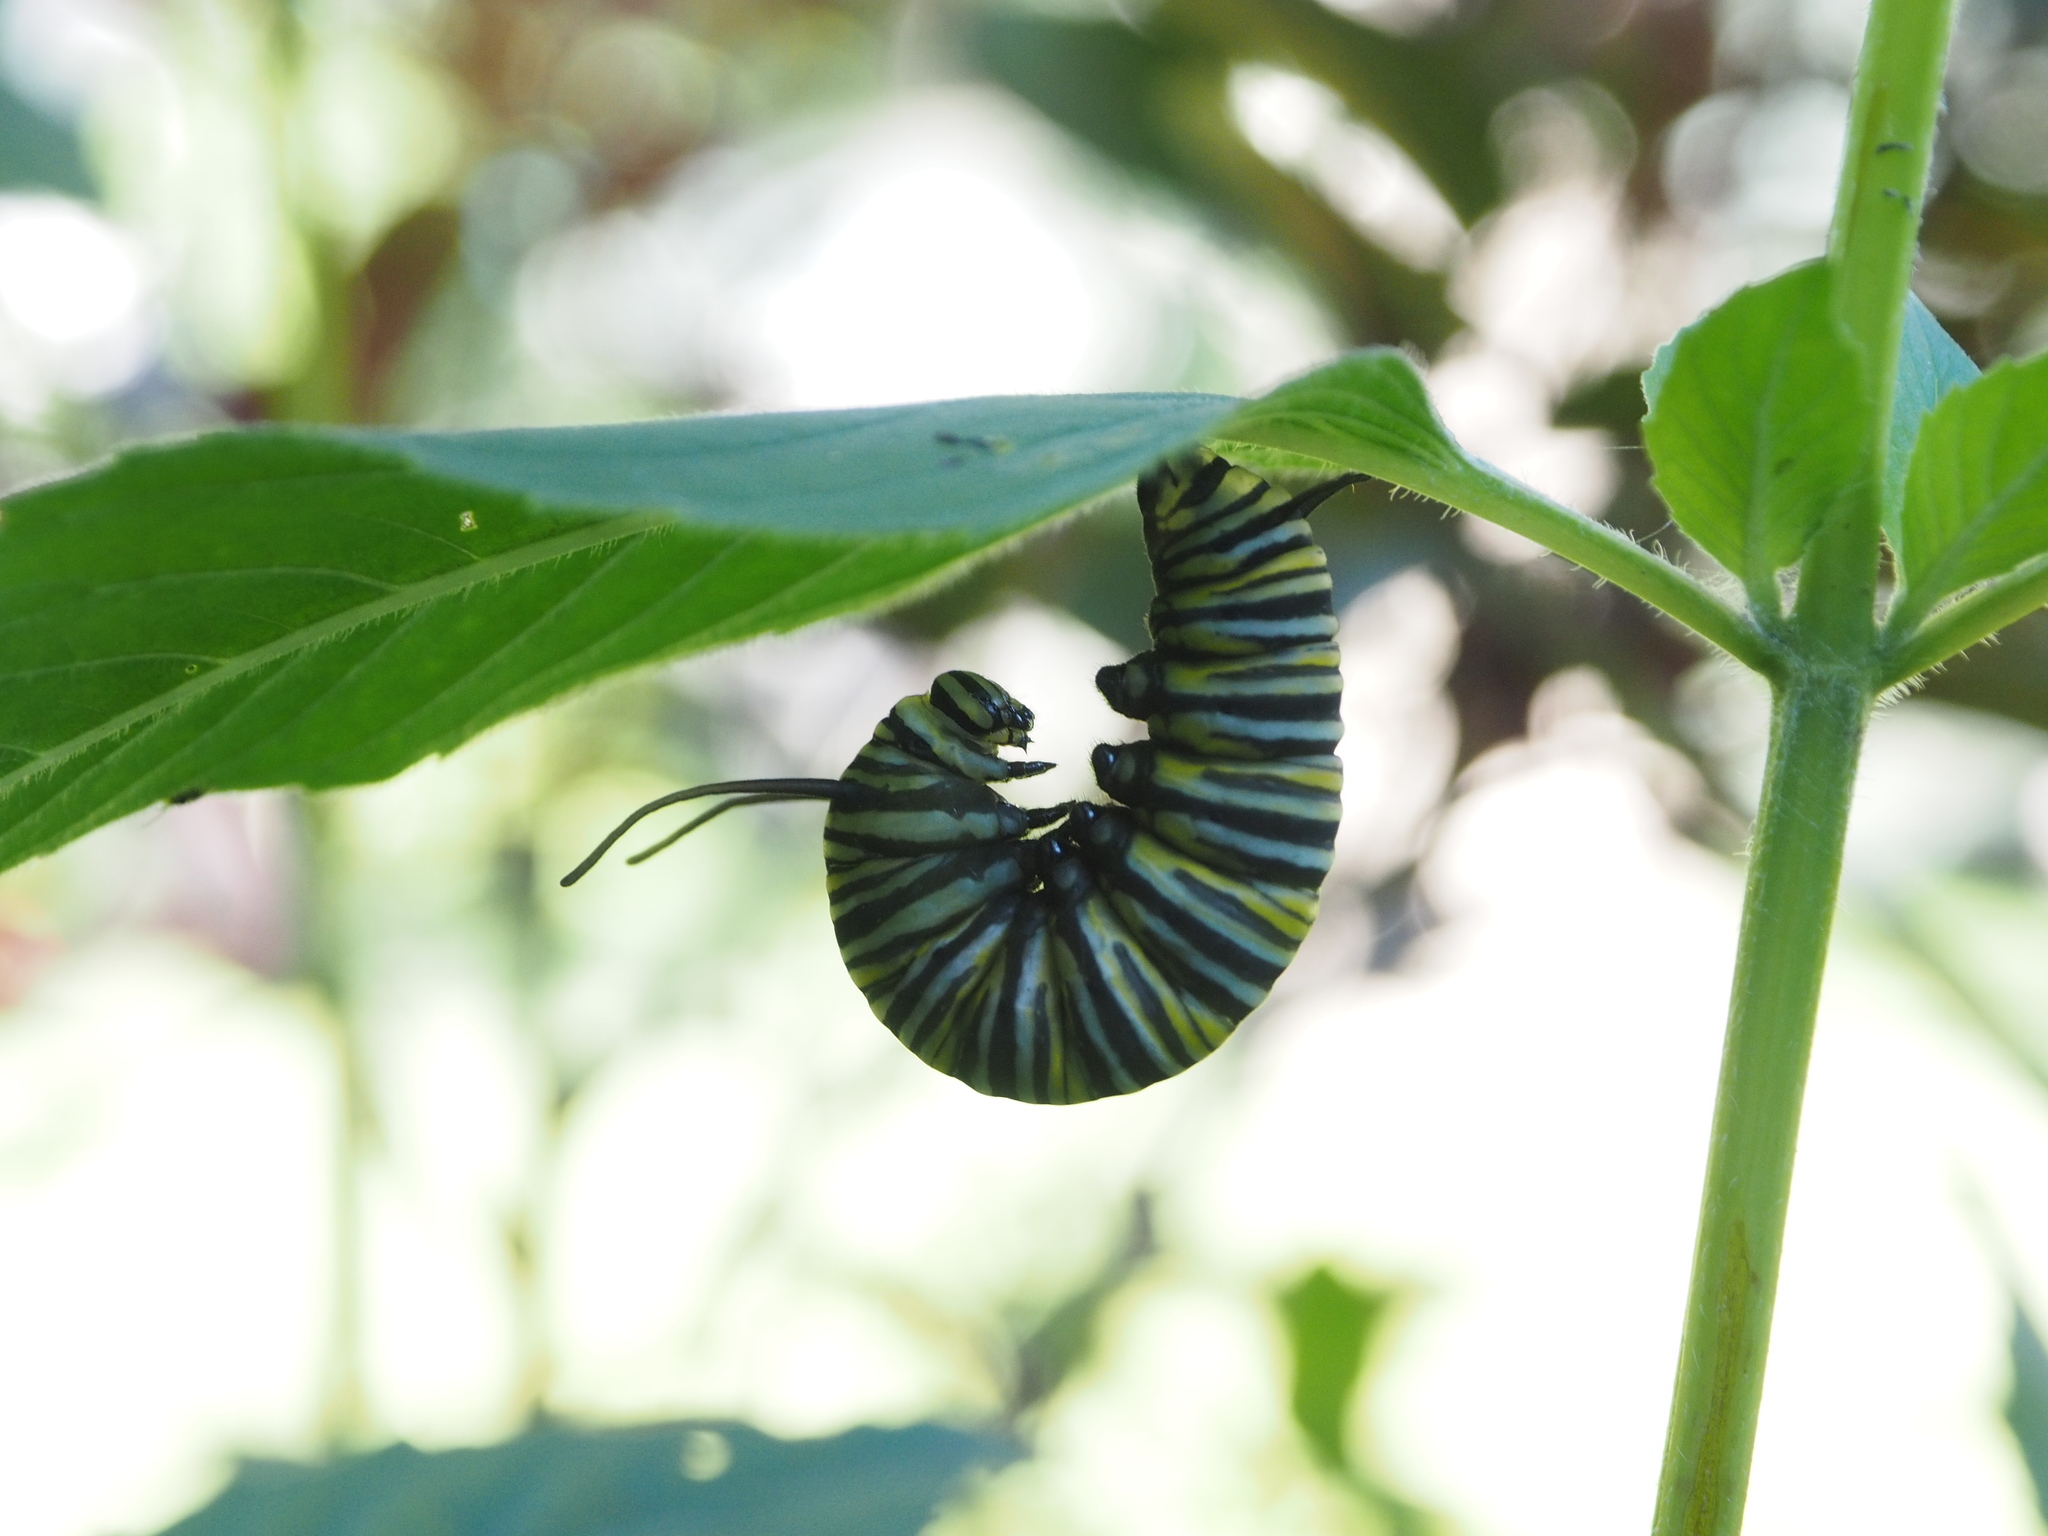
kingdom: Animalia
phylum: Arthropoda
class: Insecta
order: Lepidoptera
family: Nymphalidae
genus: Danaus
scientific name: Danaus plexippus
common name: Monarch
